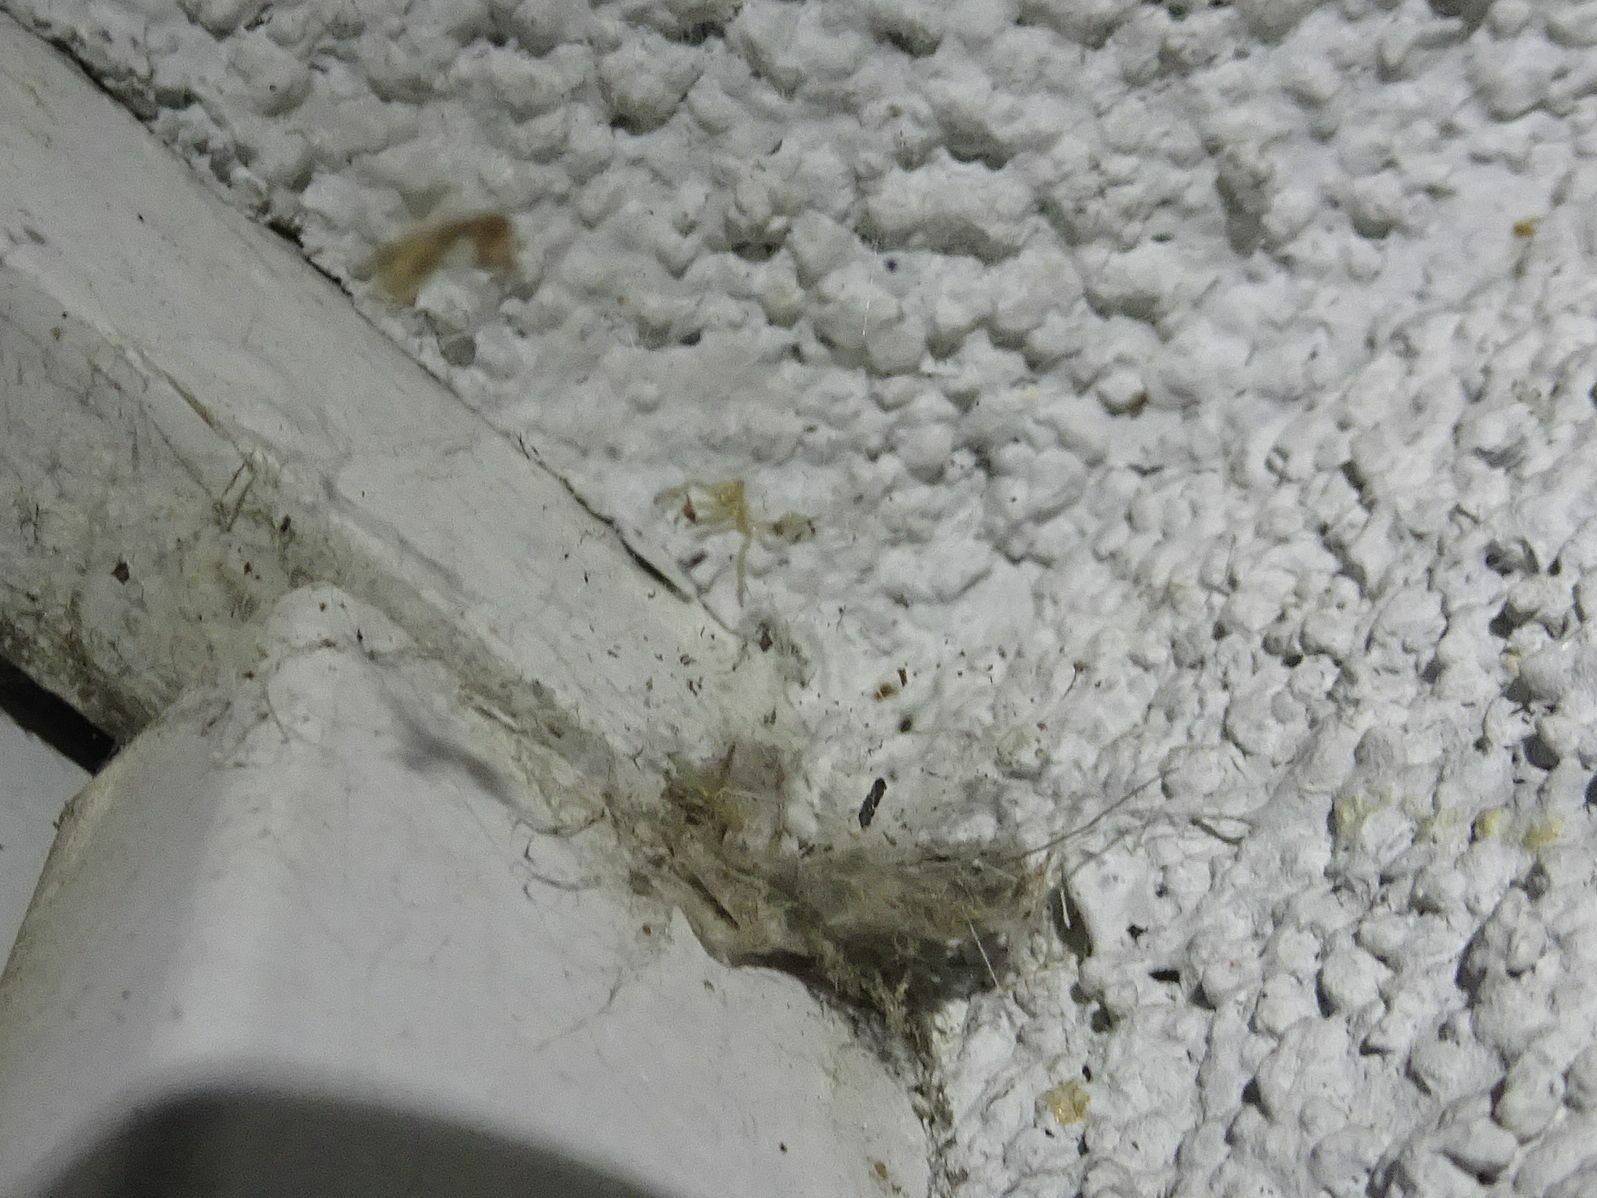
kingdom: Animalia
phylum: Arthropoda
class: Arachnida
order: Araneae
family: Theridiidae
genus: Steatoda
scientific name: Steatoda nobilis
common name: Cobweb weaver
